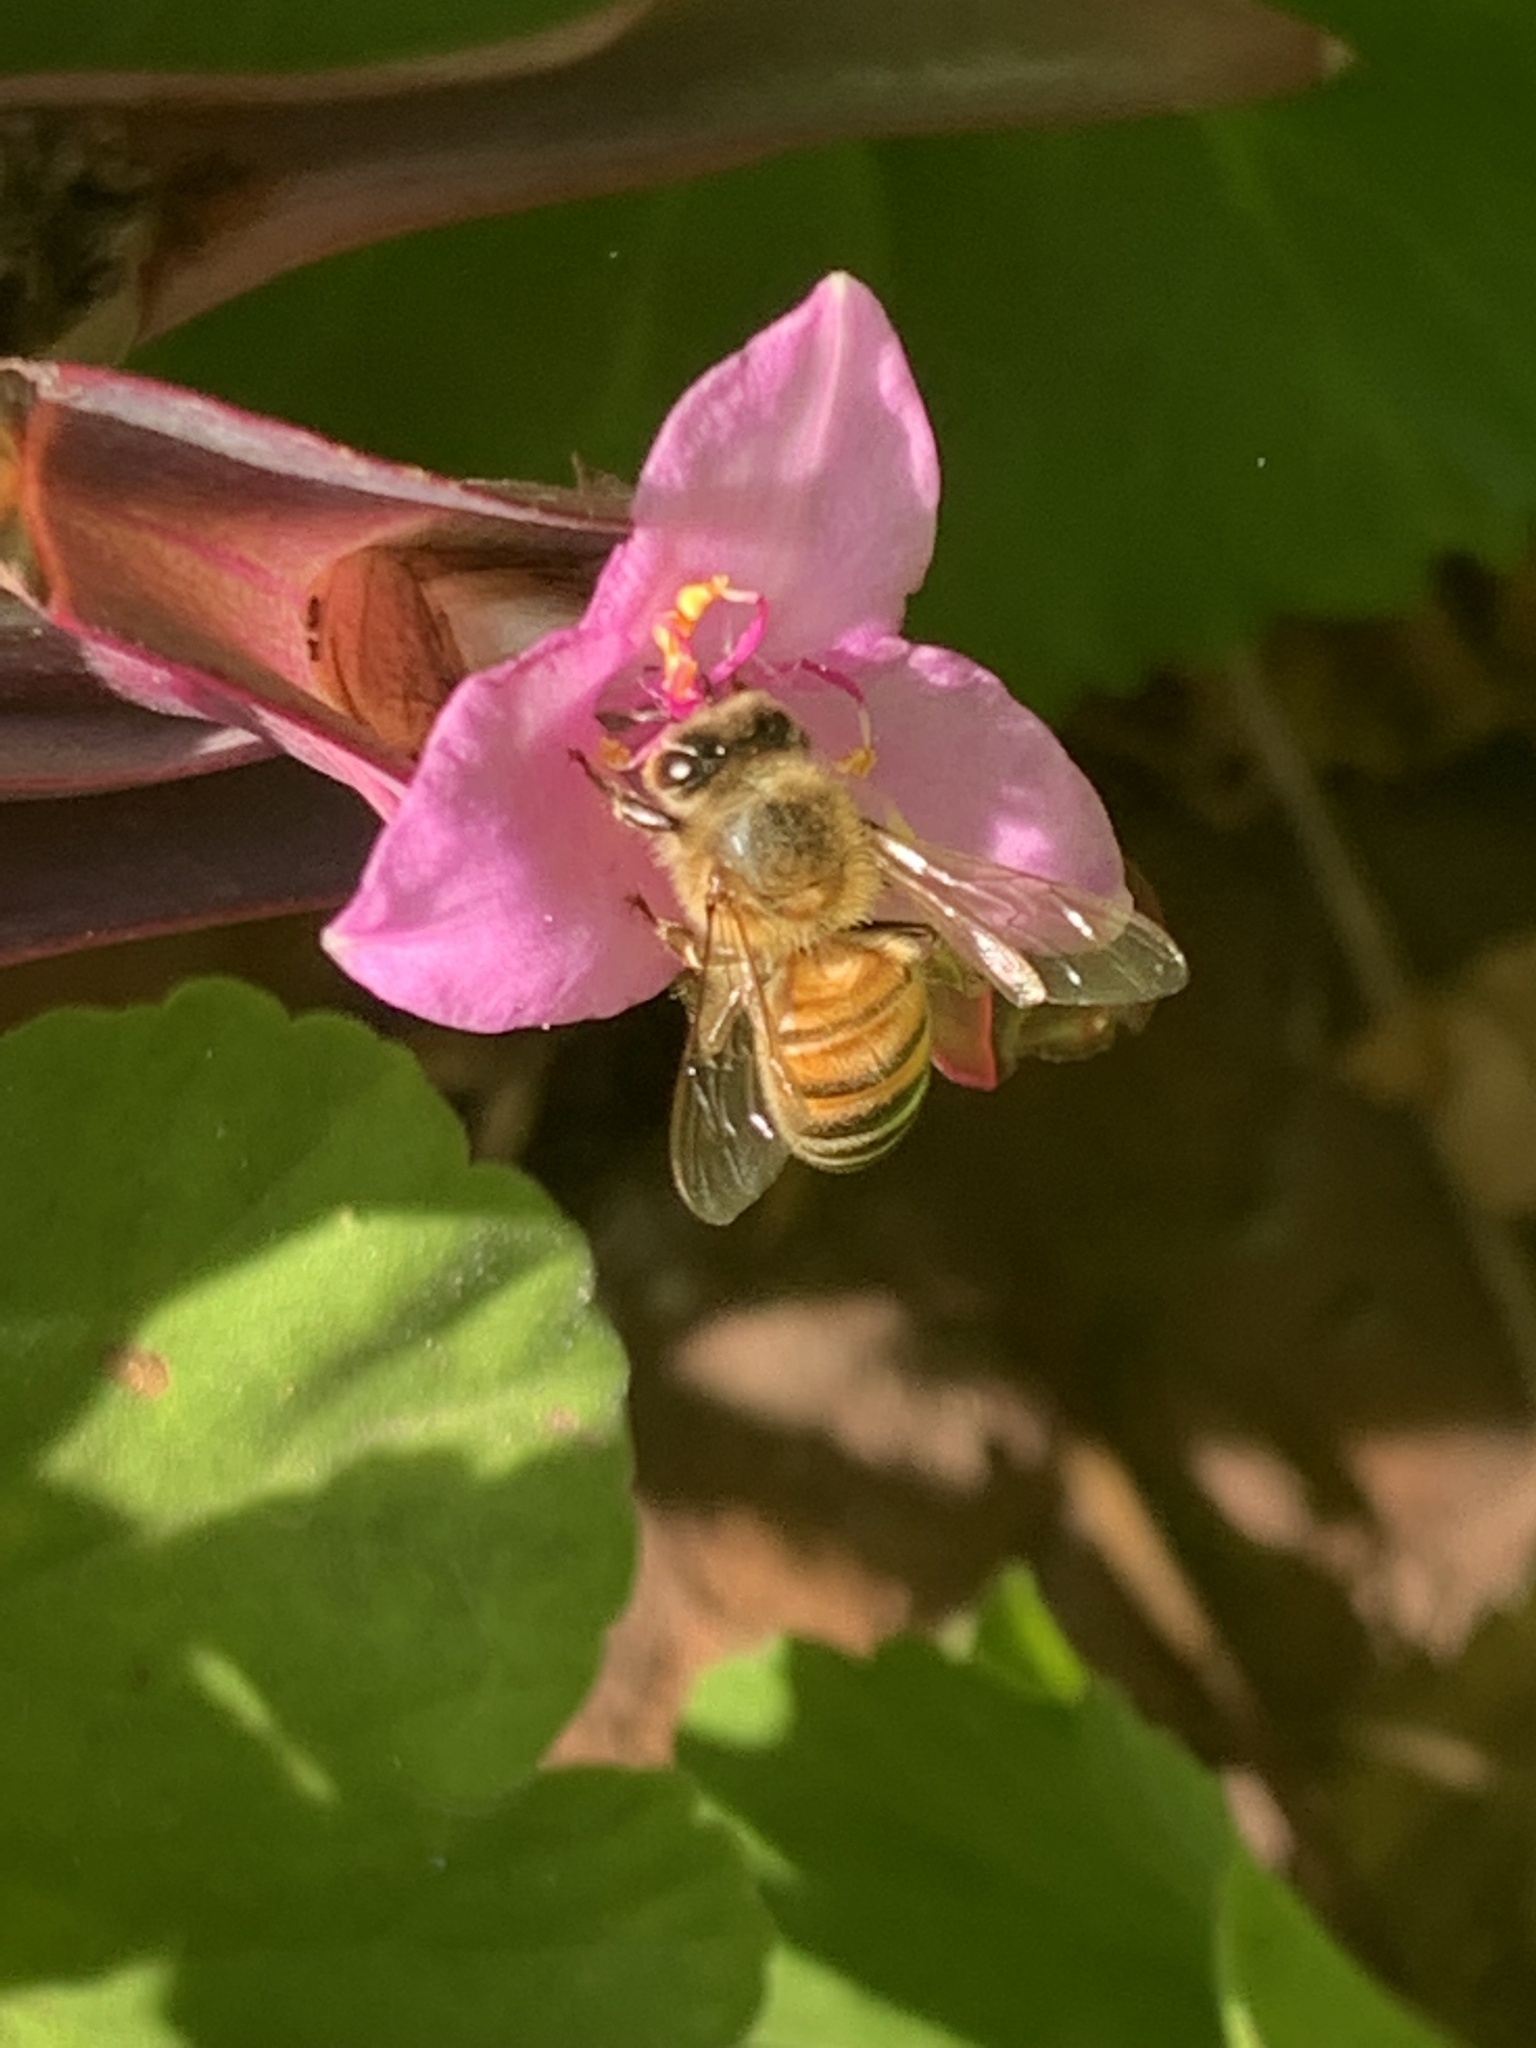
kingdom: Animalia
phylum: Arthropoda
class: Insecta
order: Hymenoptera
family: Apidae
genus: Apis
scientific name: Apis mellifera
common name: Honey bee
